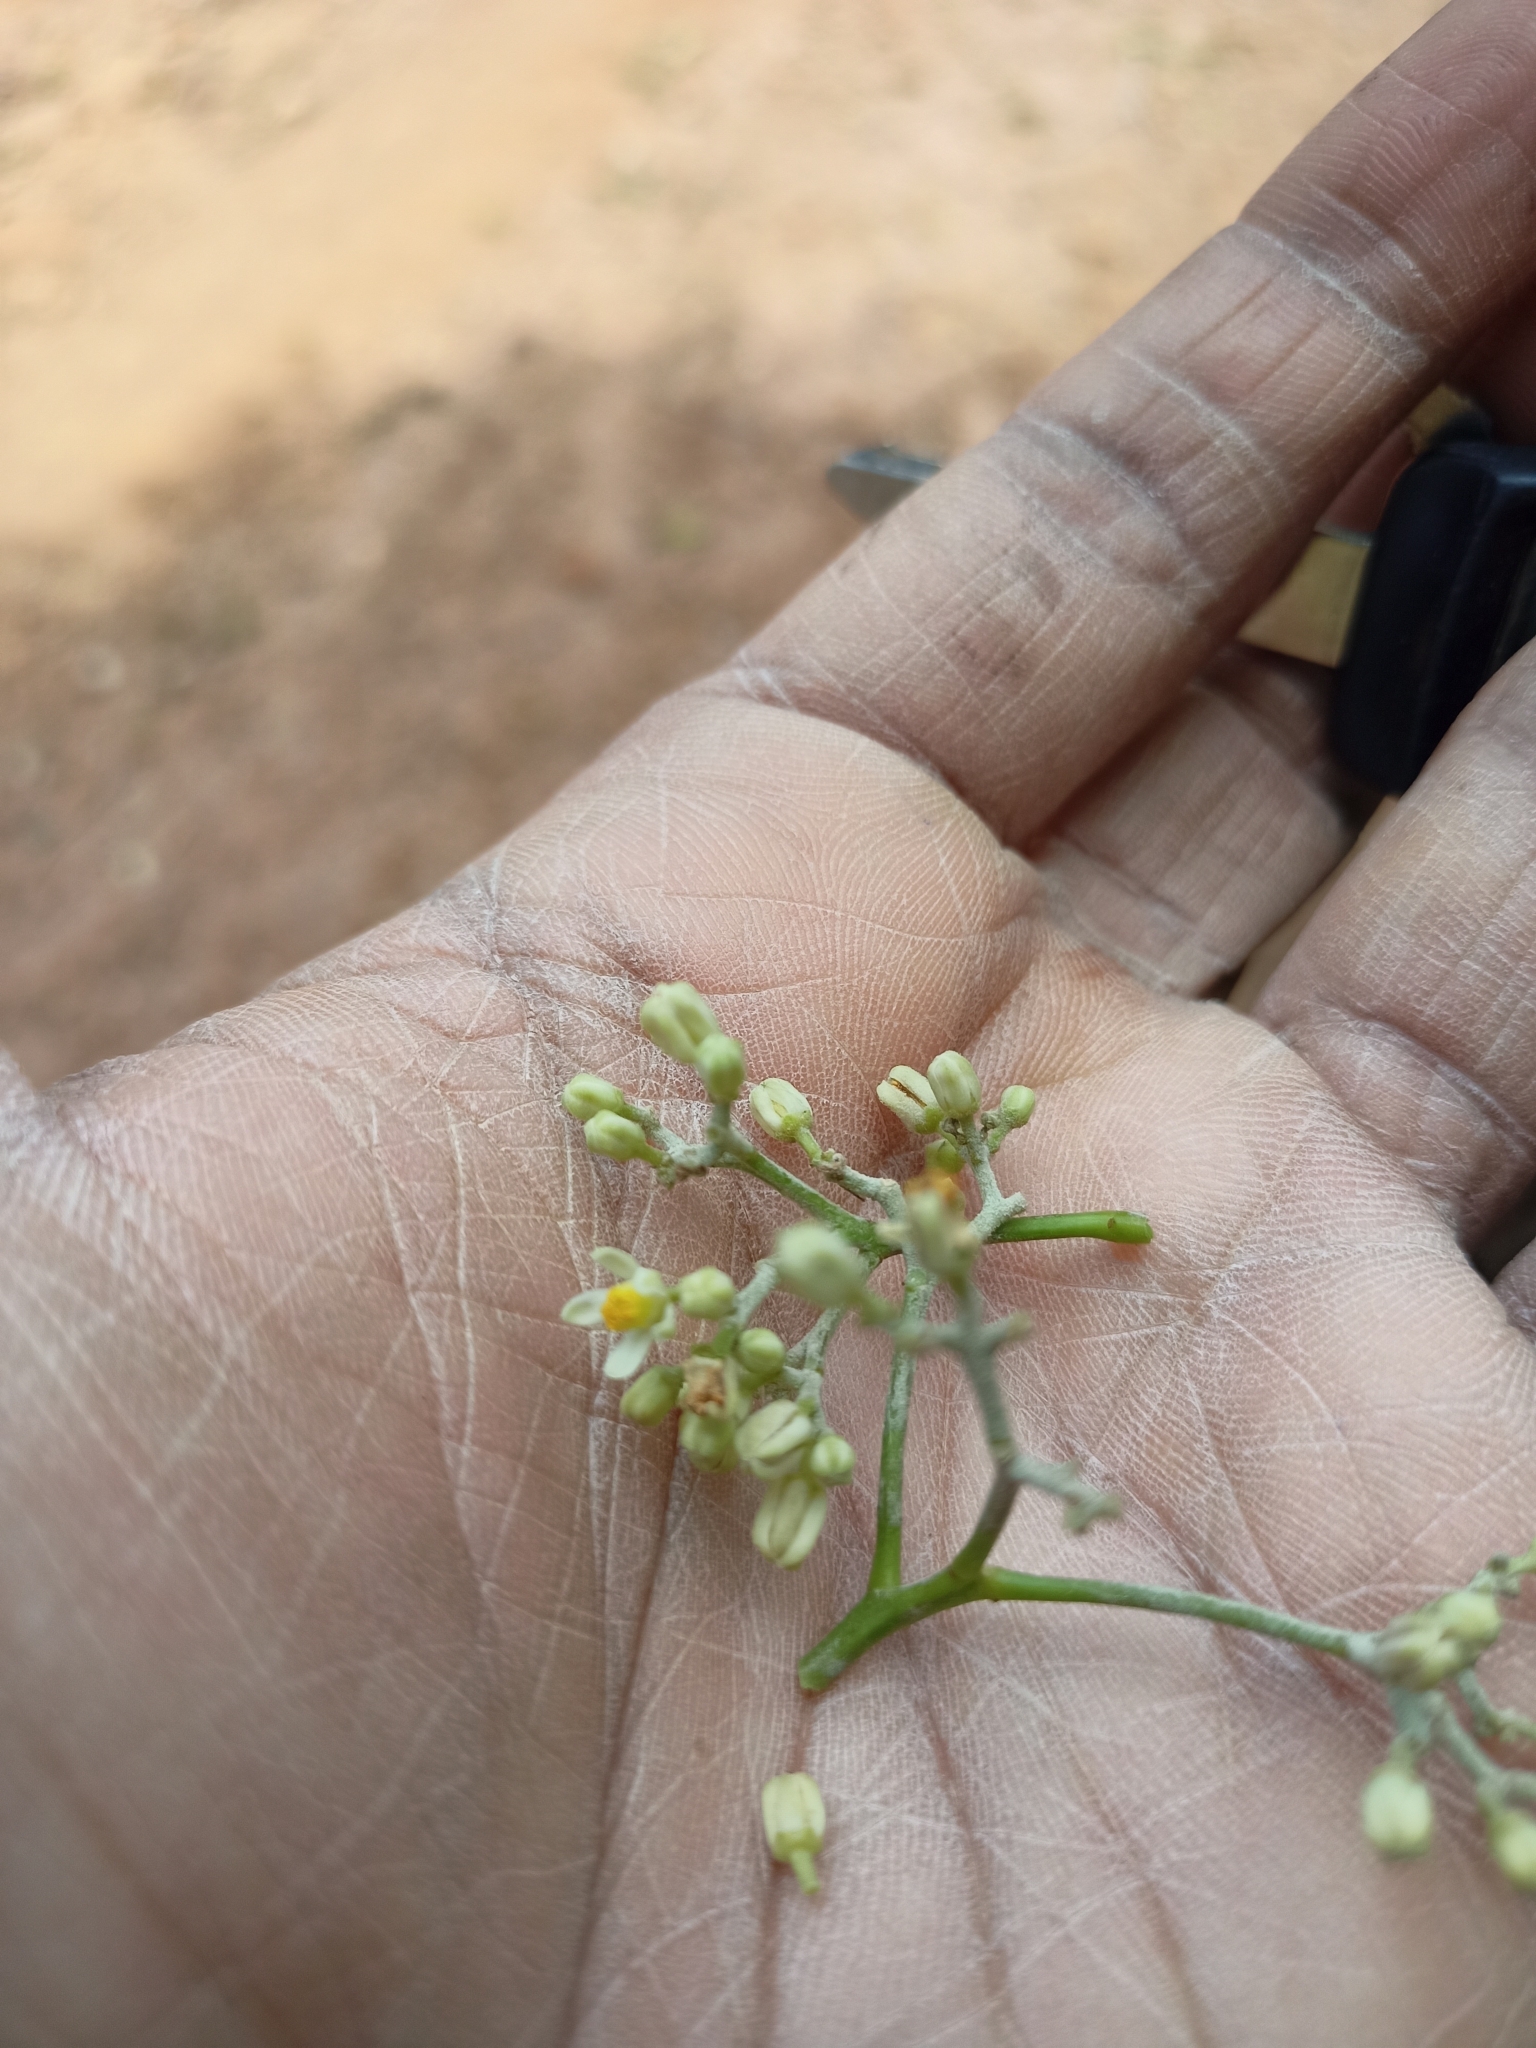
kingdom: Plantae
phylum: Tracheophyta
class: Magnoliopsida
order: Sapindales
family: Meliaceae
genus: Heynea
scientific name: Heynea trijuga
